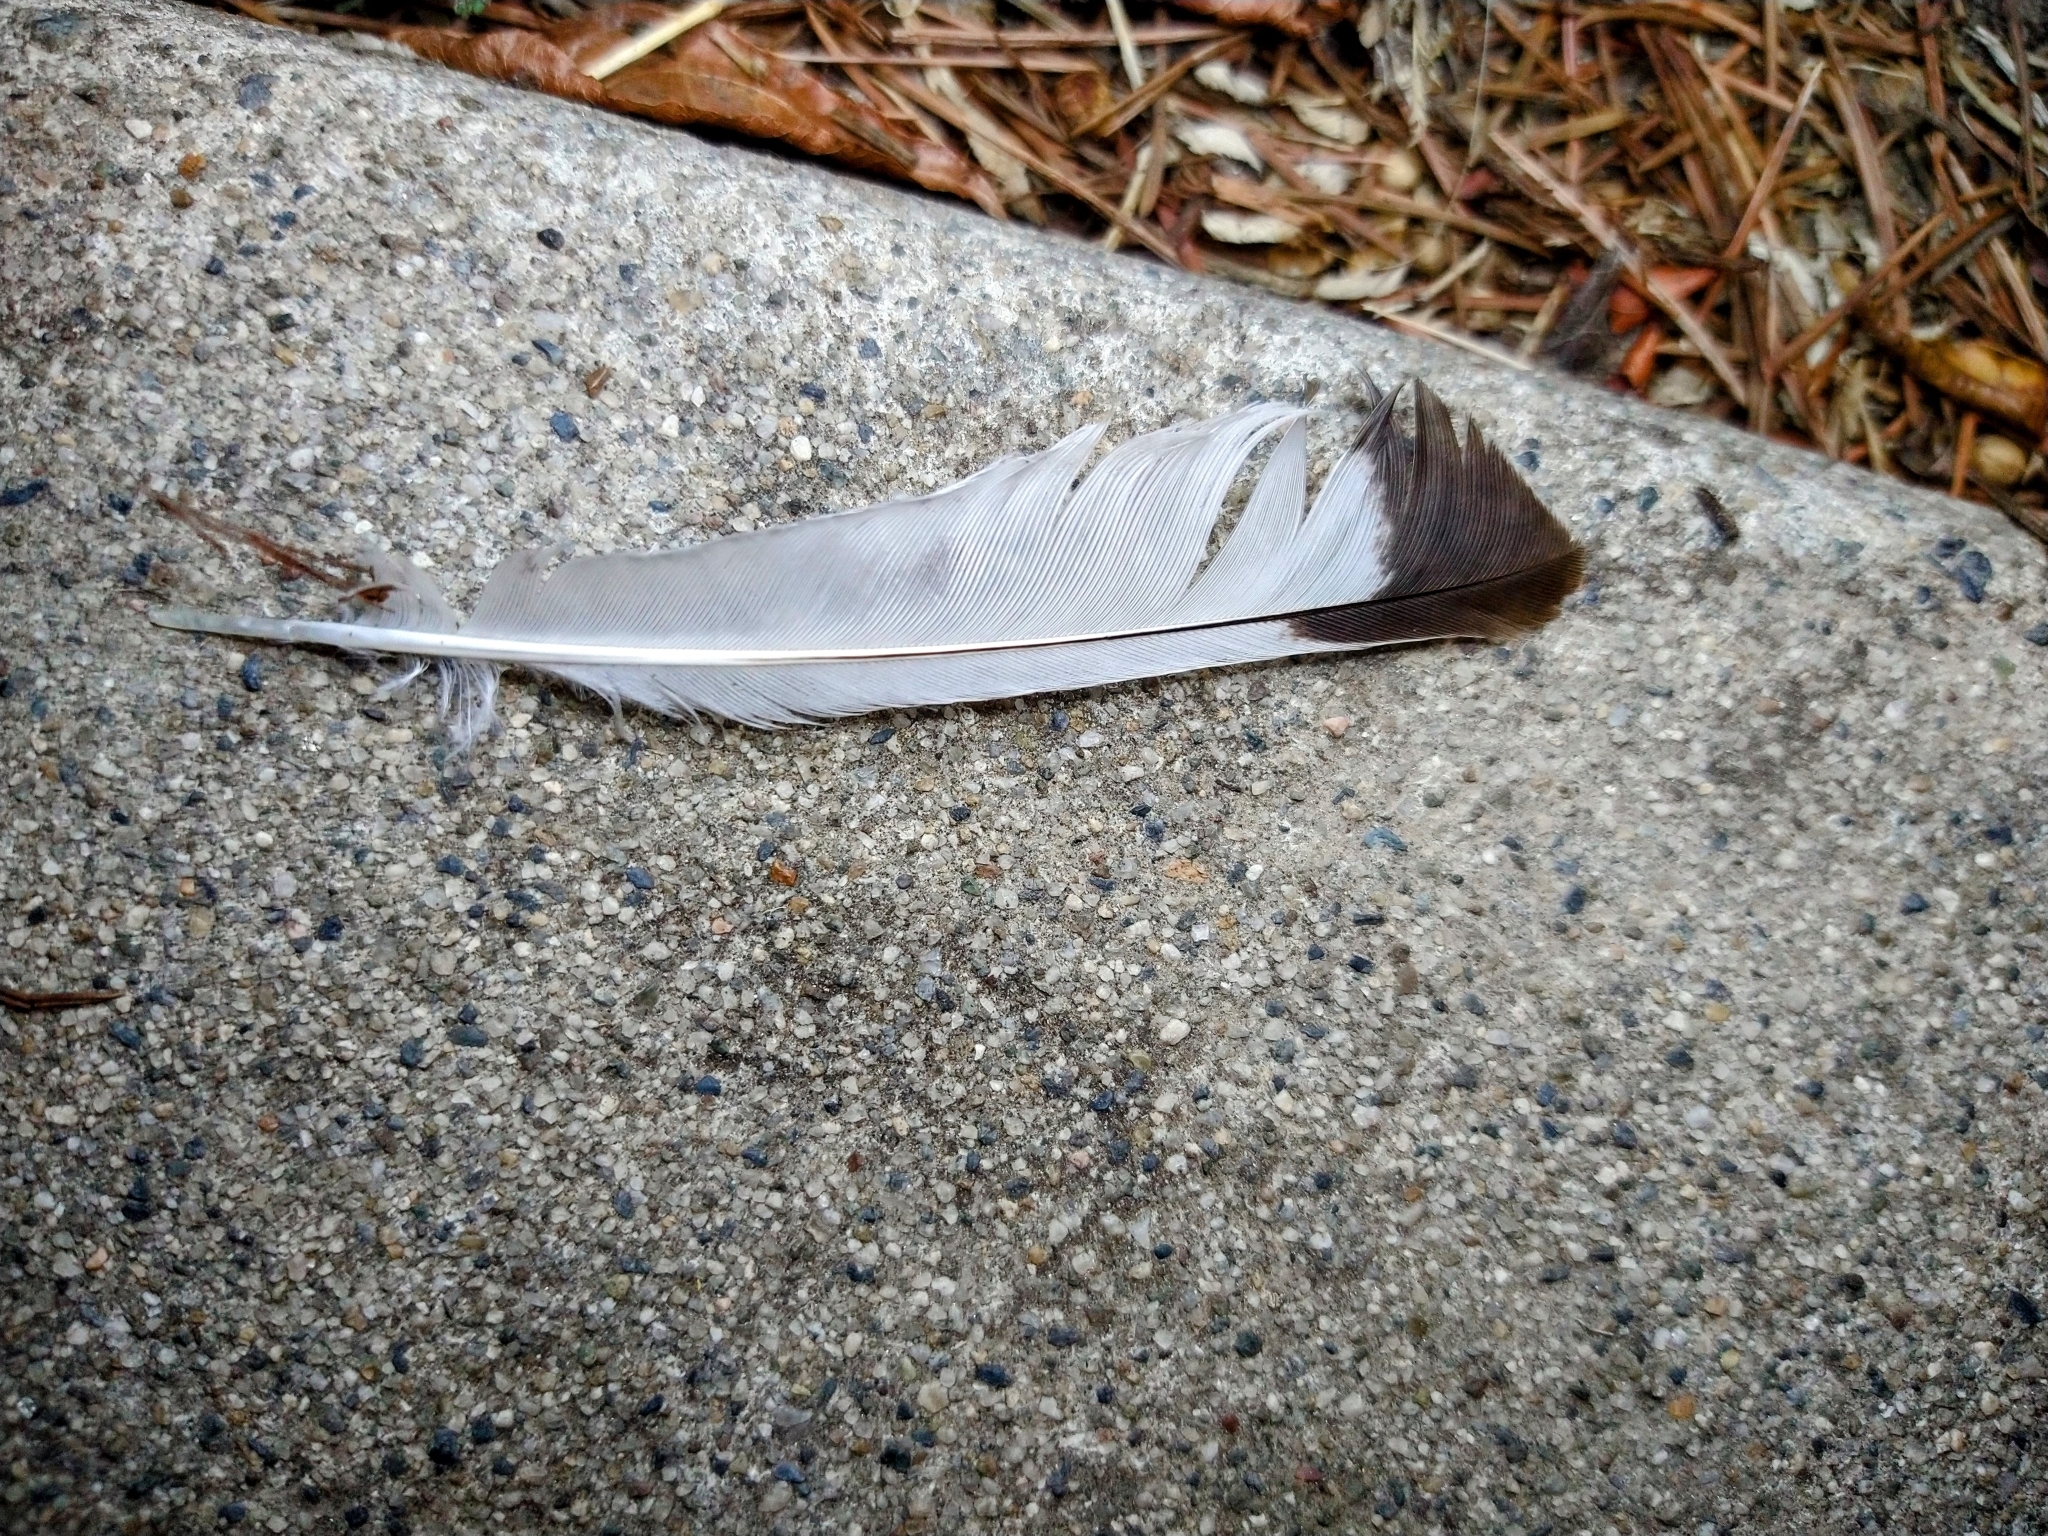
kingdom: Animalia
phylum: Chordata
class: Aves
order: Passeriformes
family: Mimidae
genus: Mimus
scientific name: Mimus polyglottos
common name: Northern mockingbird
